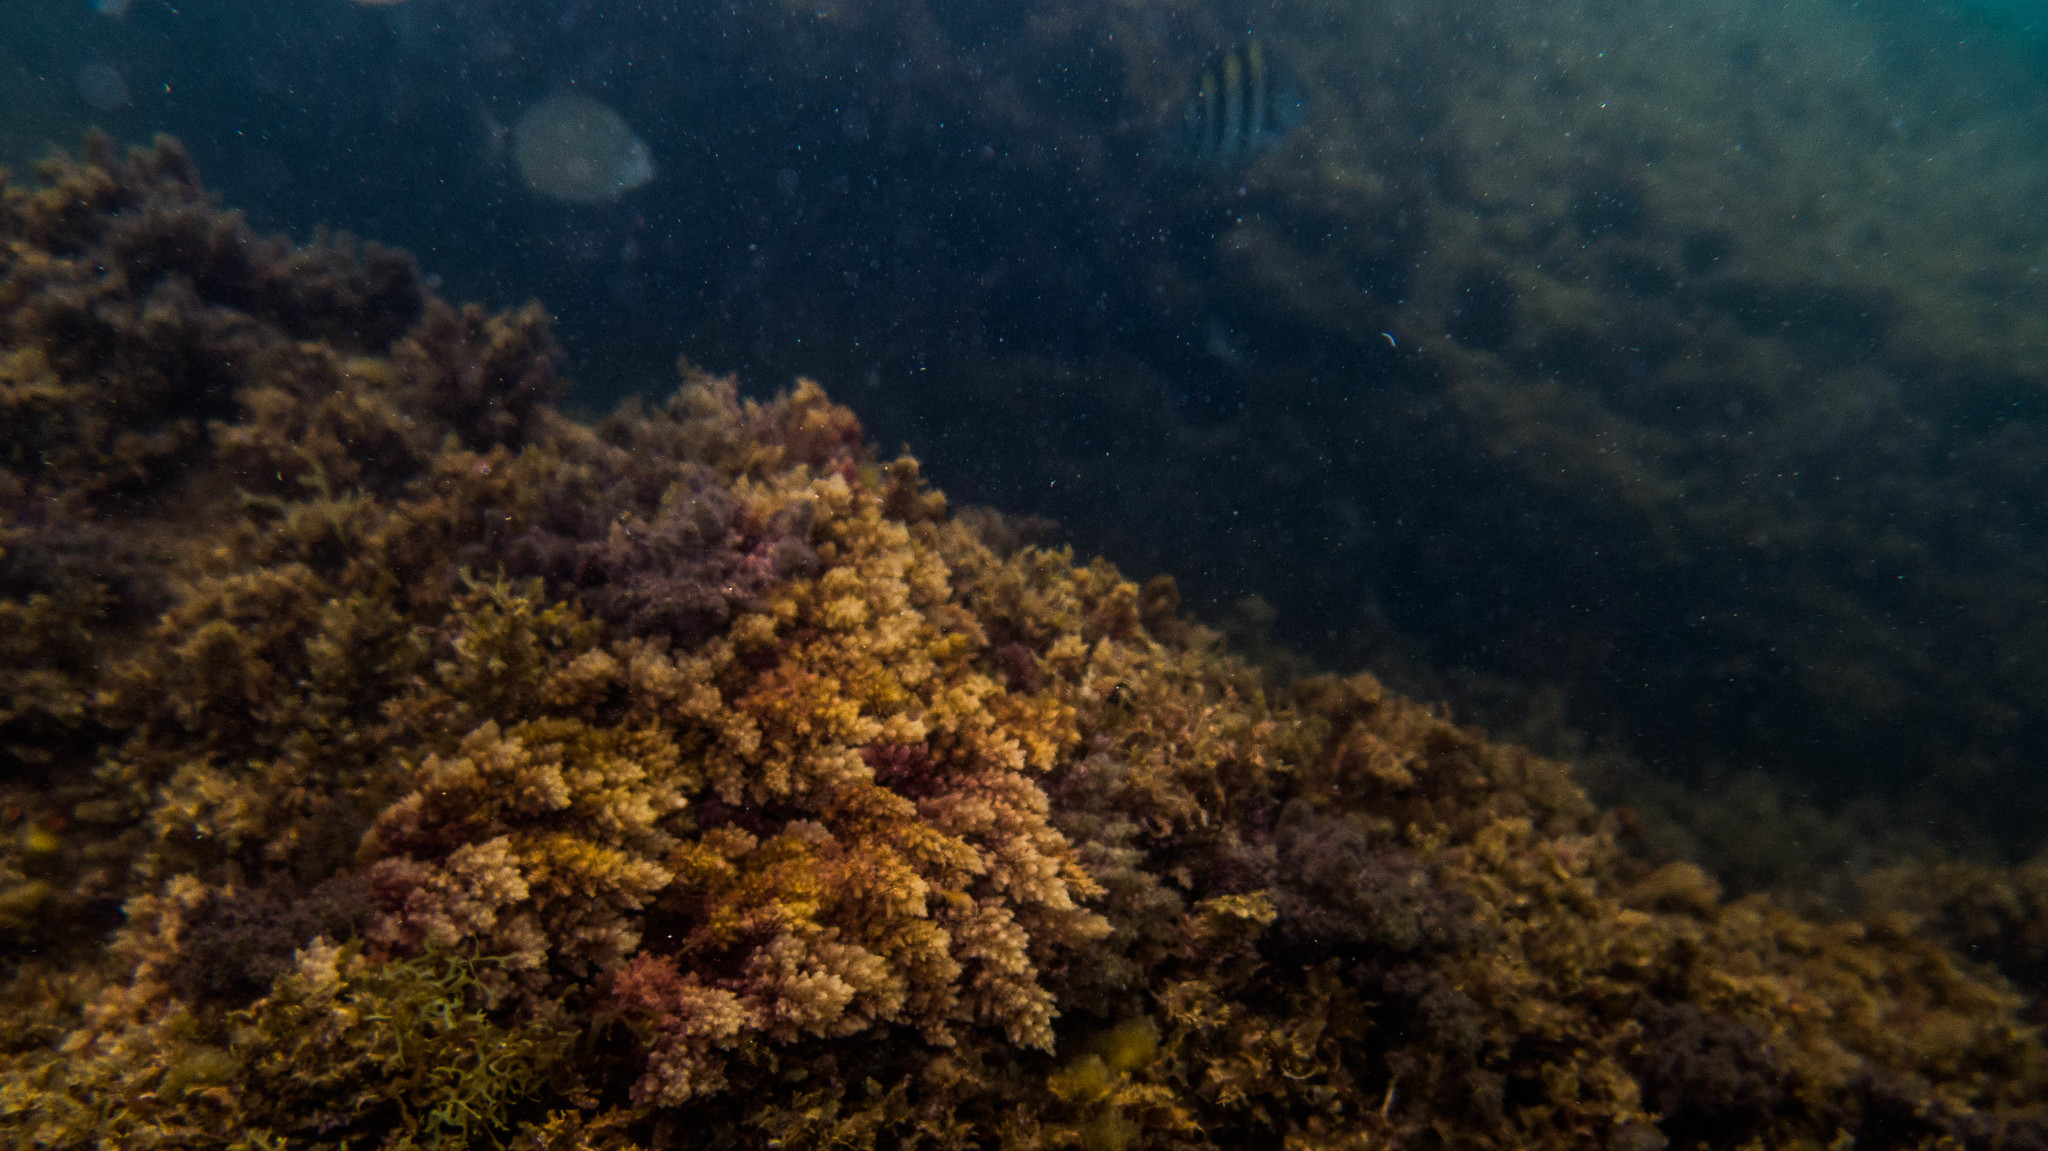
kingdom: Plantae
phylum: Rhodophyta
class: Florideophyceae
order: Bonnemaisoniales
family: Bonnemaisoniaceae
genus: Asparagopsis
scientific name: Asparagopsis taxiformis
